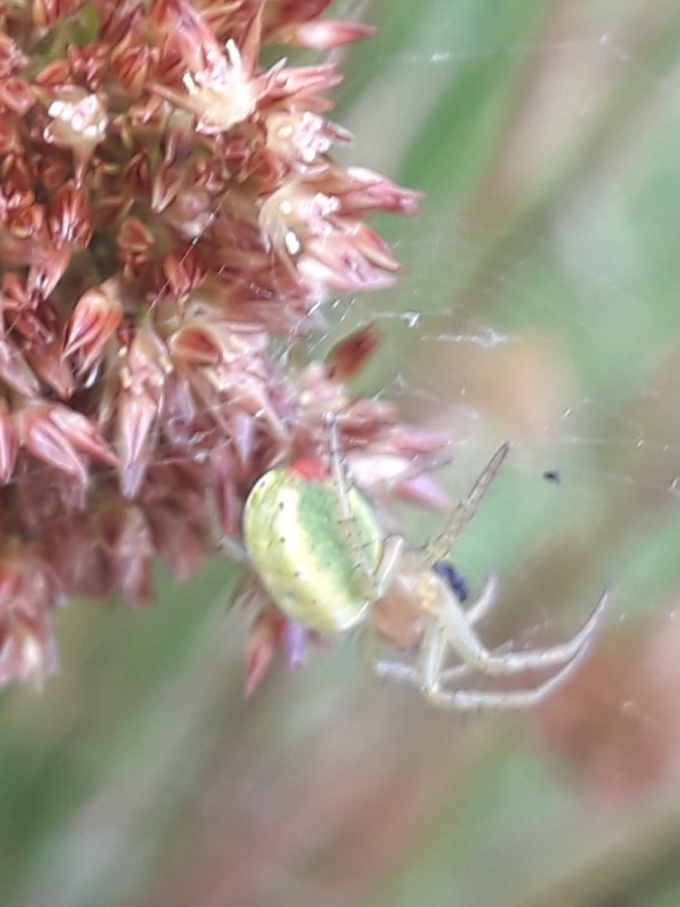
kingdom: Animalia
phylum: Arthropoda
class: Arachnida
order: Araneae
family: Araneidae
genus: Araniella
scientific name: Araniella opisthographa
